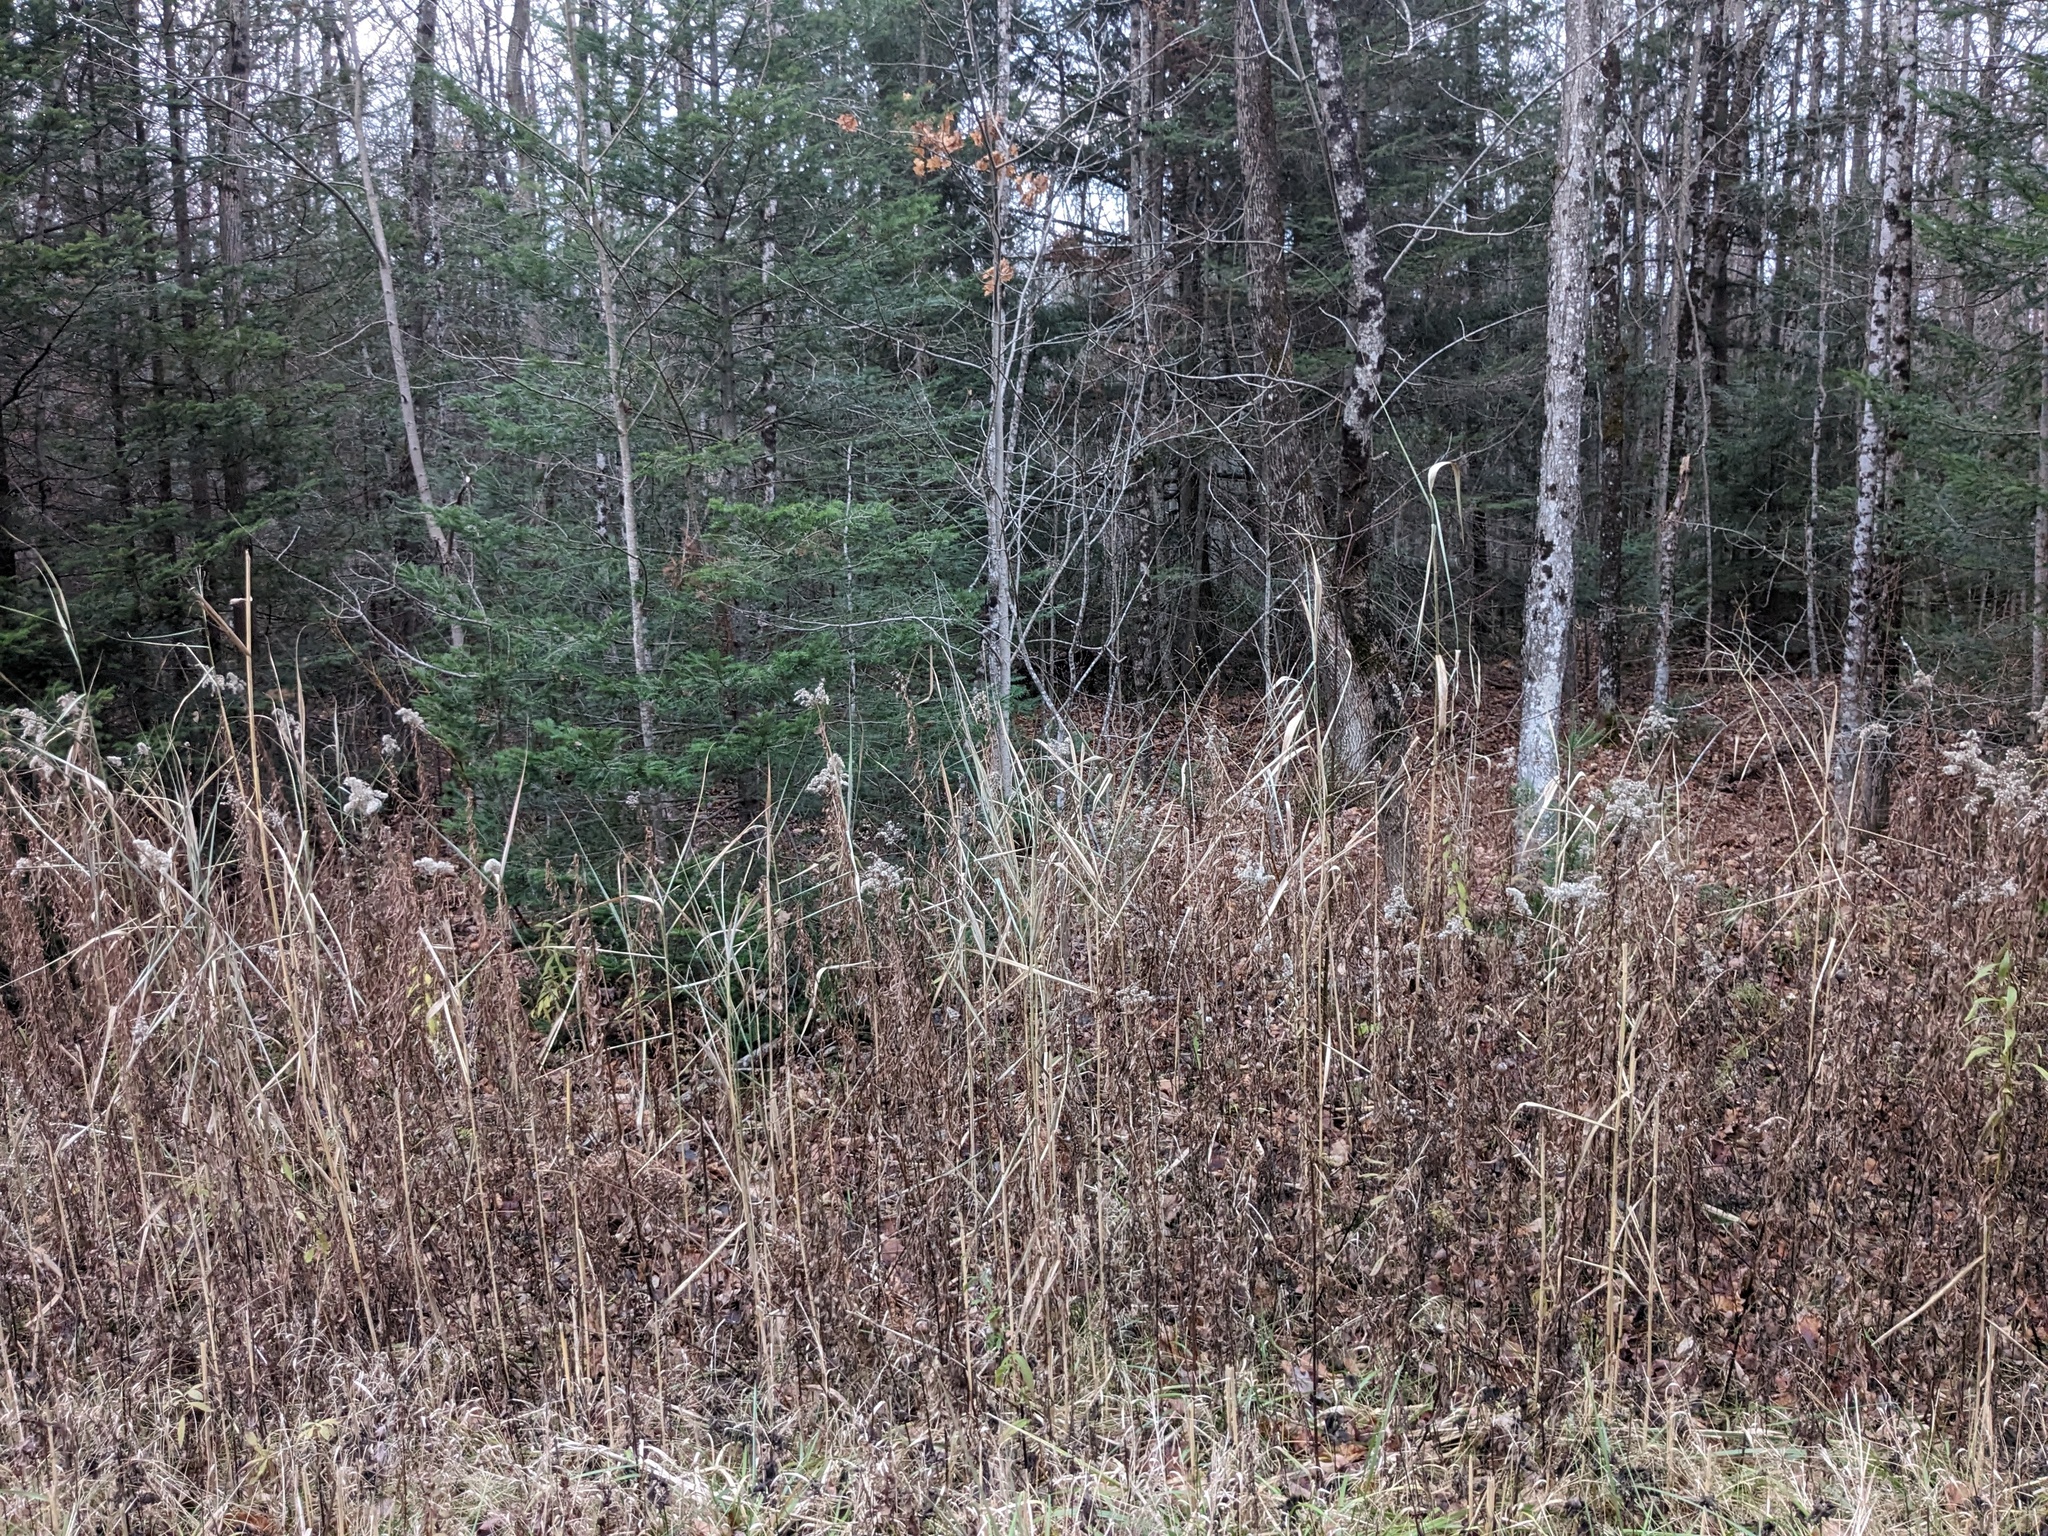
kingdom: Plantae
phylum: Tracheophyta
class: Liliopsida
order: Poales
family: Poaceae
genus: Phragmites
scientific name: Phragmites australis
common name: Common reed
